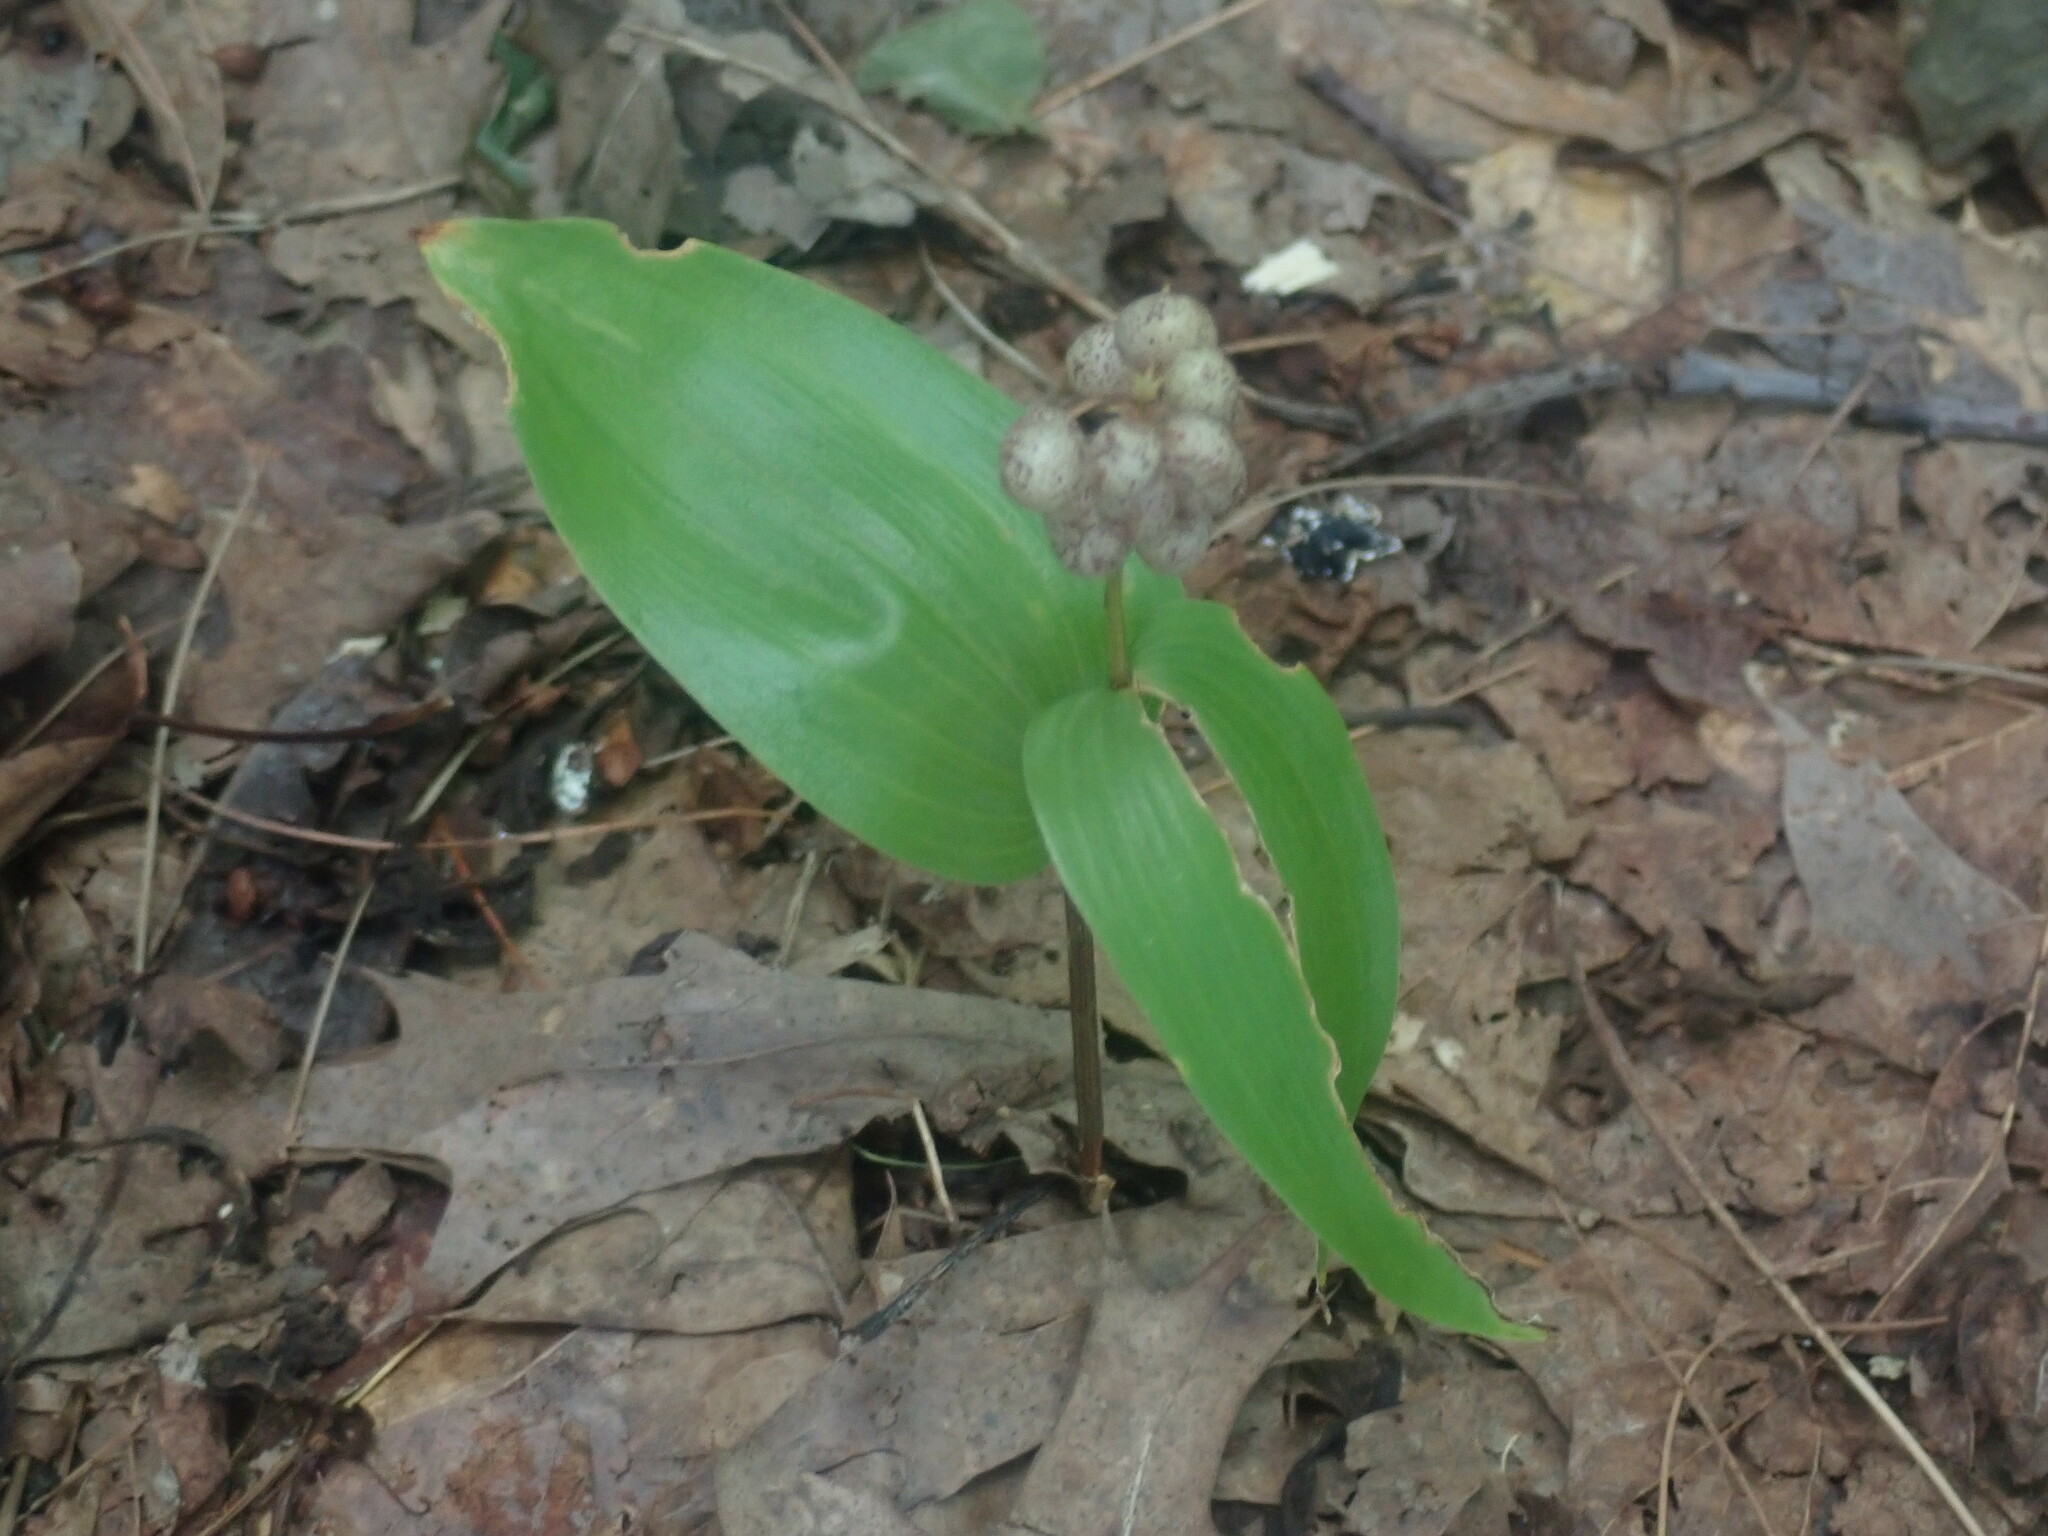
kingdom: Plantae
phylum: Tracheophyta
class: Liliopsida
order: Asparagales
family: Asparagaceae
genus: Maianthemum
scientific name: Maianthemum canadense
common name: False lily-of-the-valley
